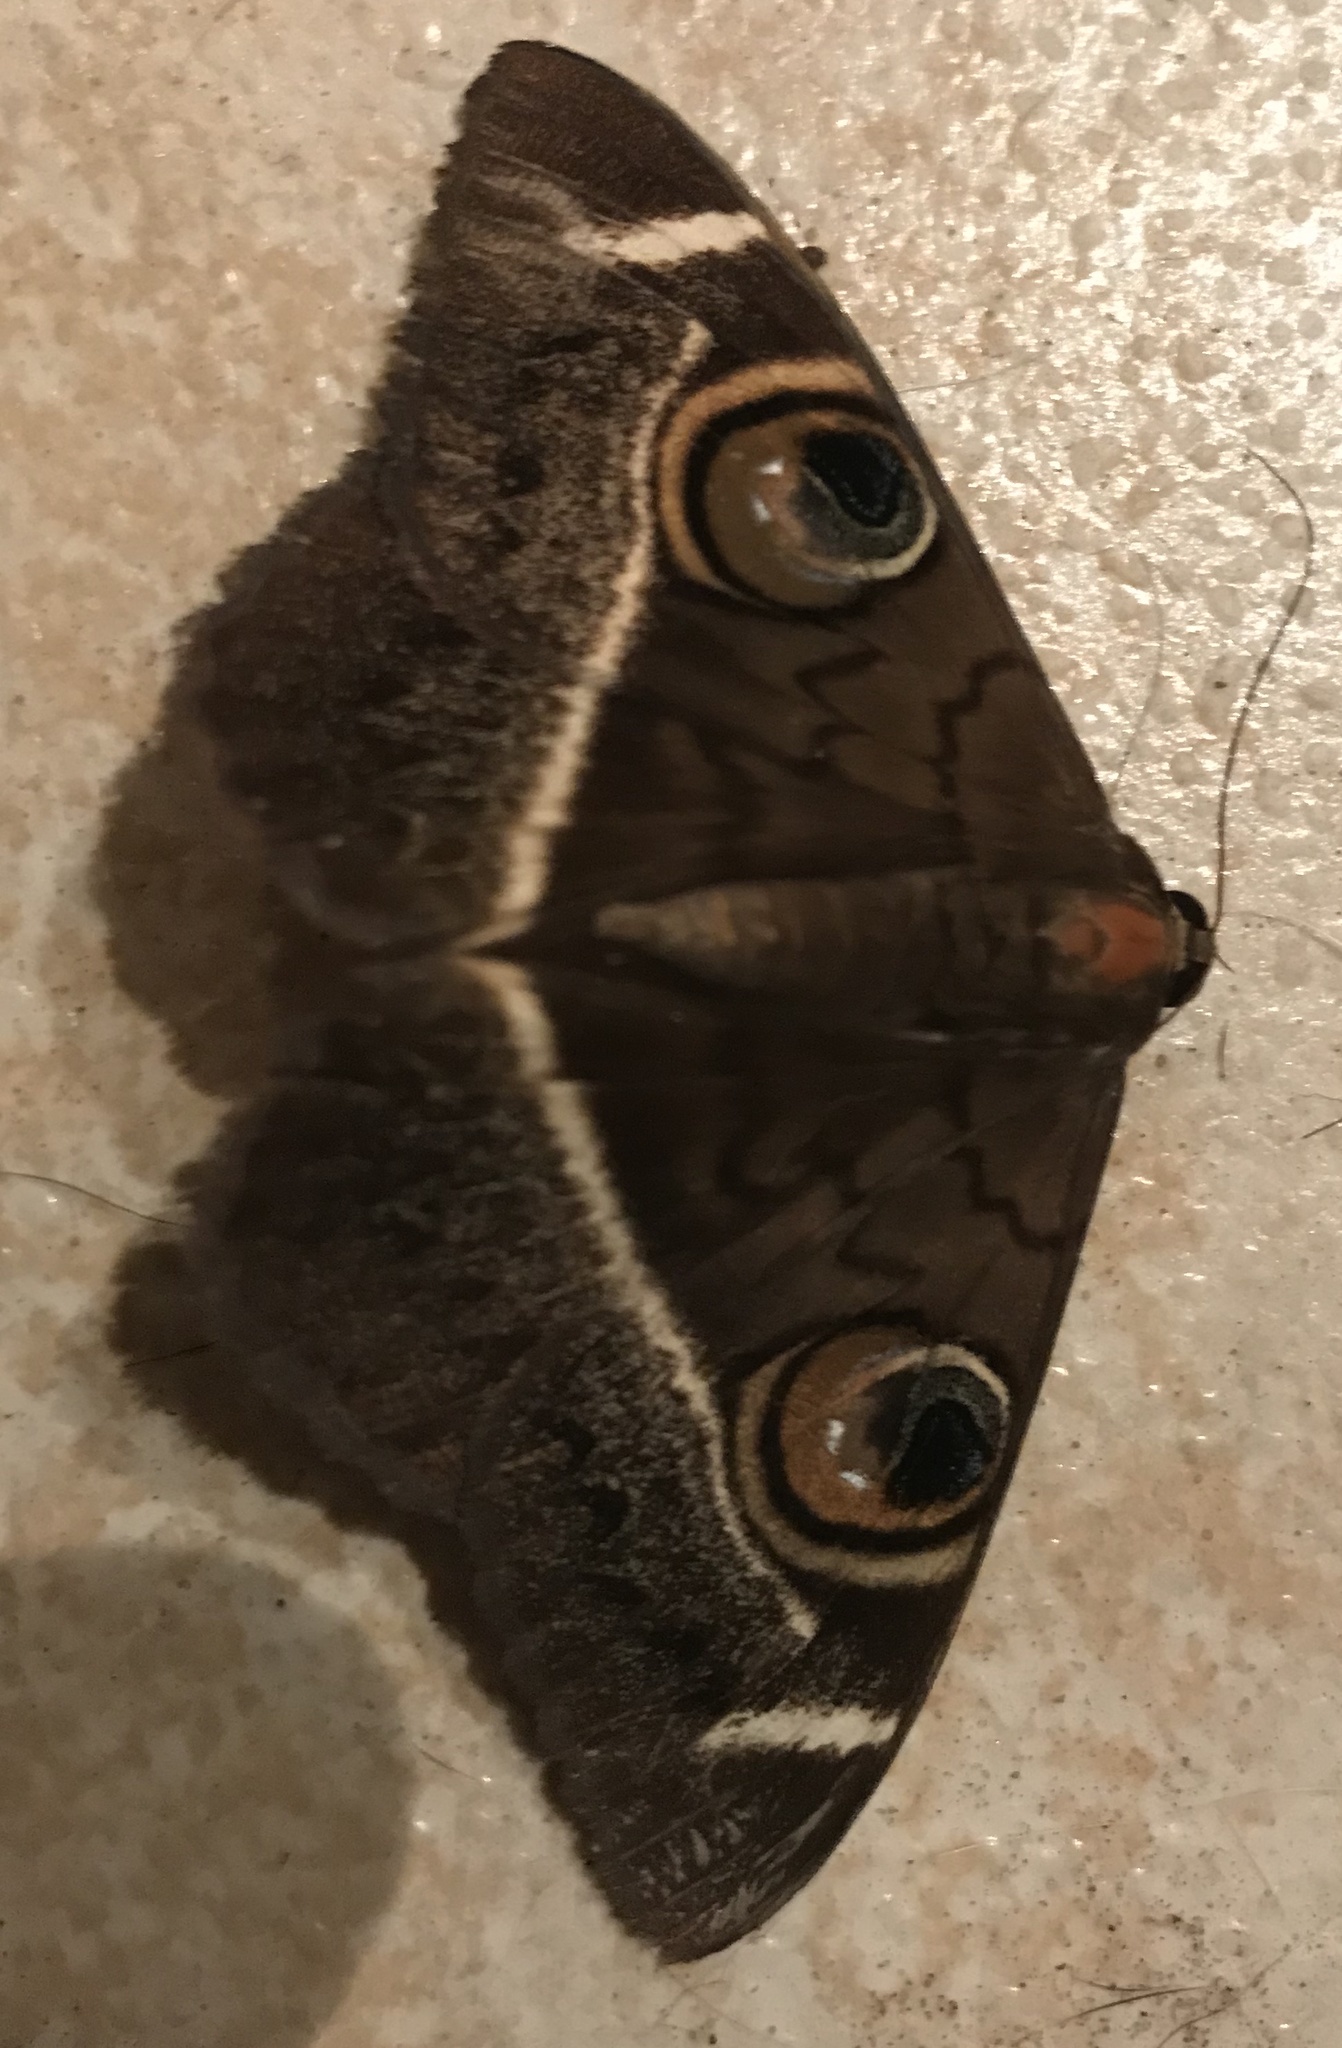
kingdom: Animalia
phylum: Arthropoda
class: Insecta
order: Lepidoptera
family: Erebidae
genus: Cyligramma
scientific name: Cyligramma latona
